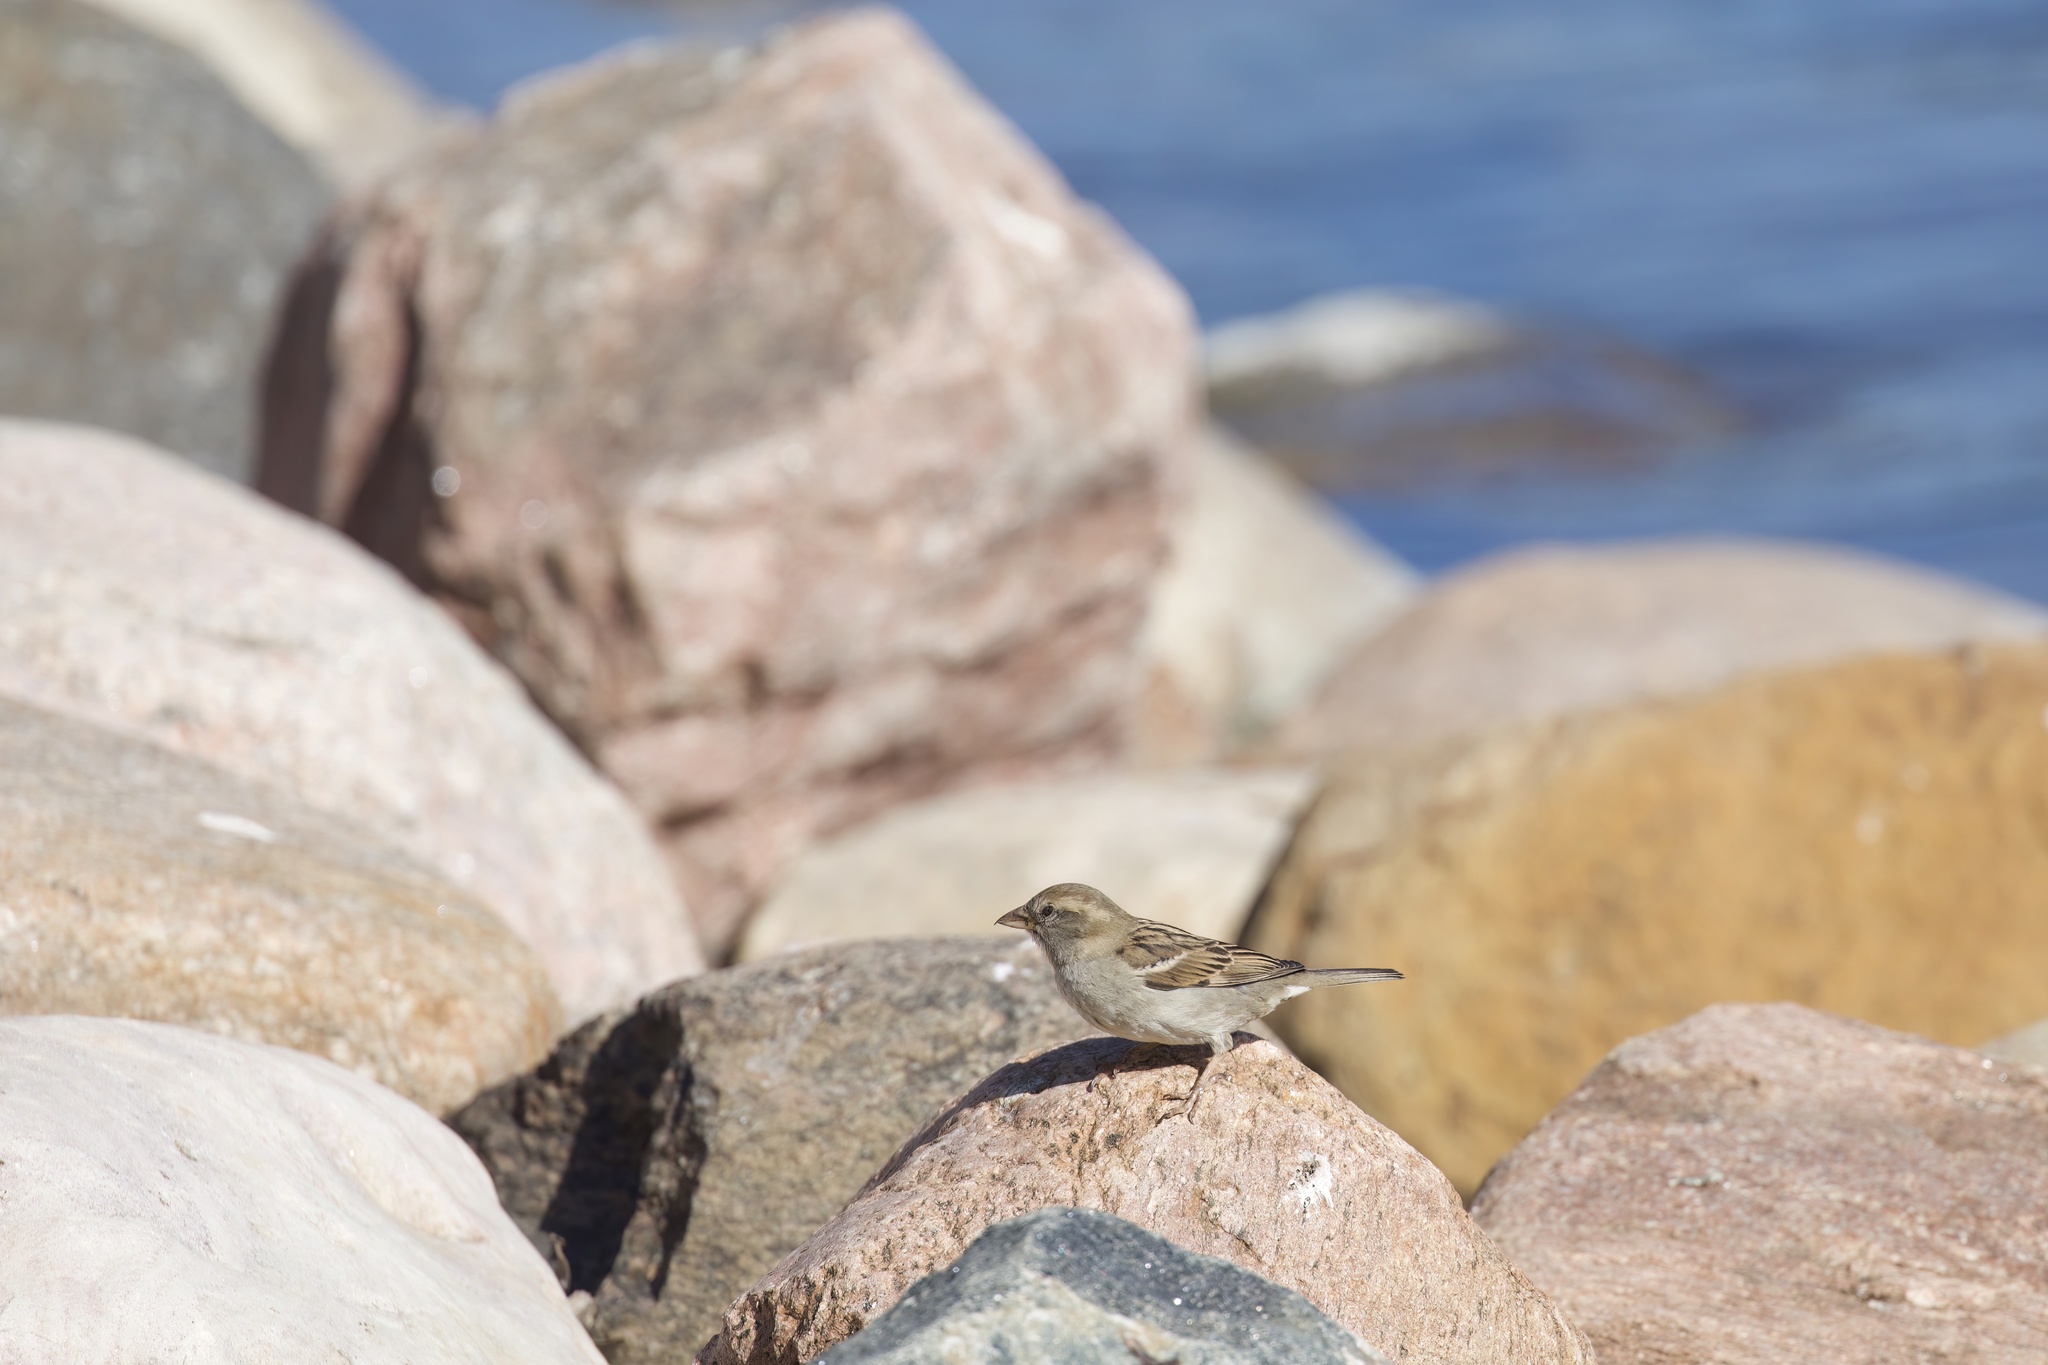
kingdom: Animalia
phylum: Chordata
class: Aves
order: Passeriformes
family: Passeridae
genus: Passer
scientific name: Passer domesticus
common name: House sparrow
